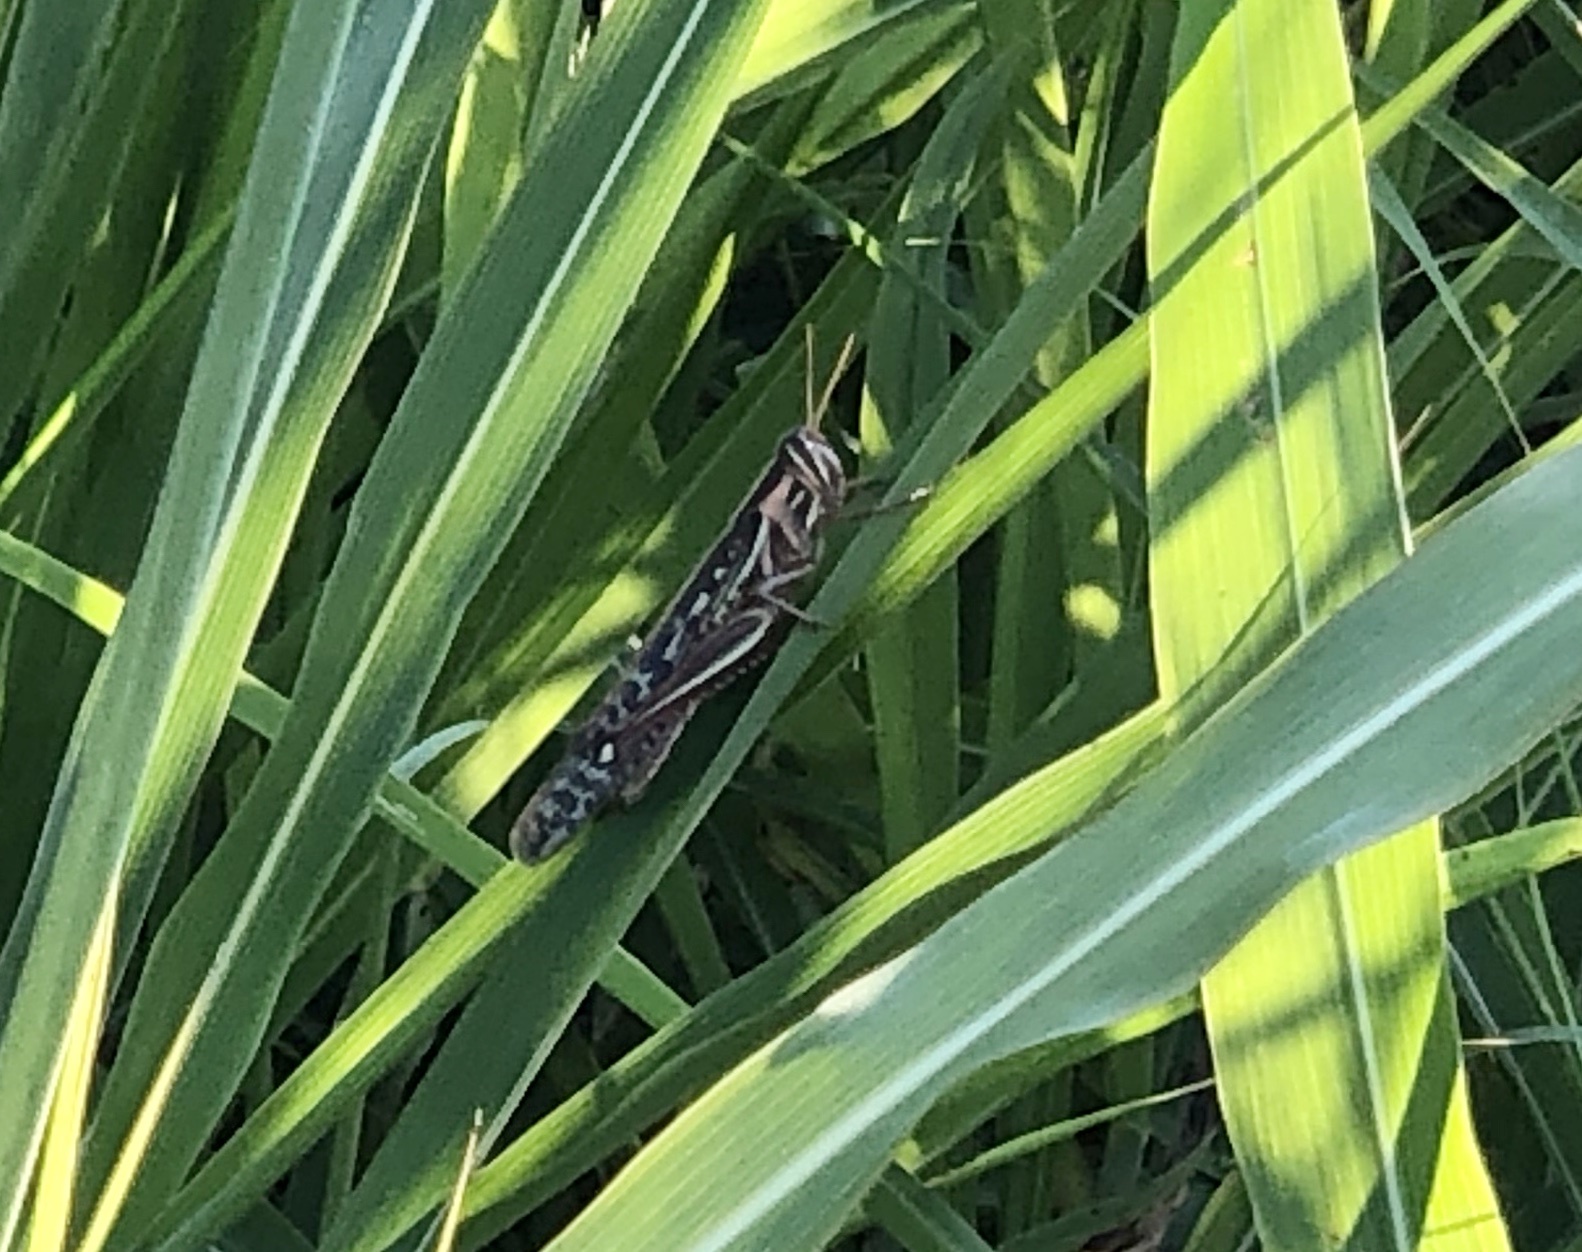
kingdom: Animalia
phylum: Arthropoda
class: Insecta
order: Orthoptera
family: Acrididae
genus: Schistocerca
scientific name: Schistocerca americana
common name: American bird locust
